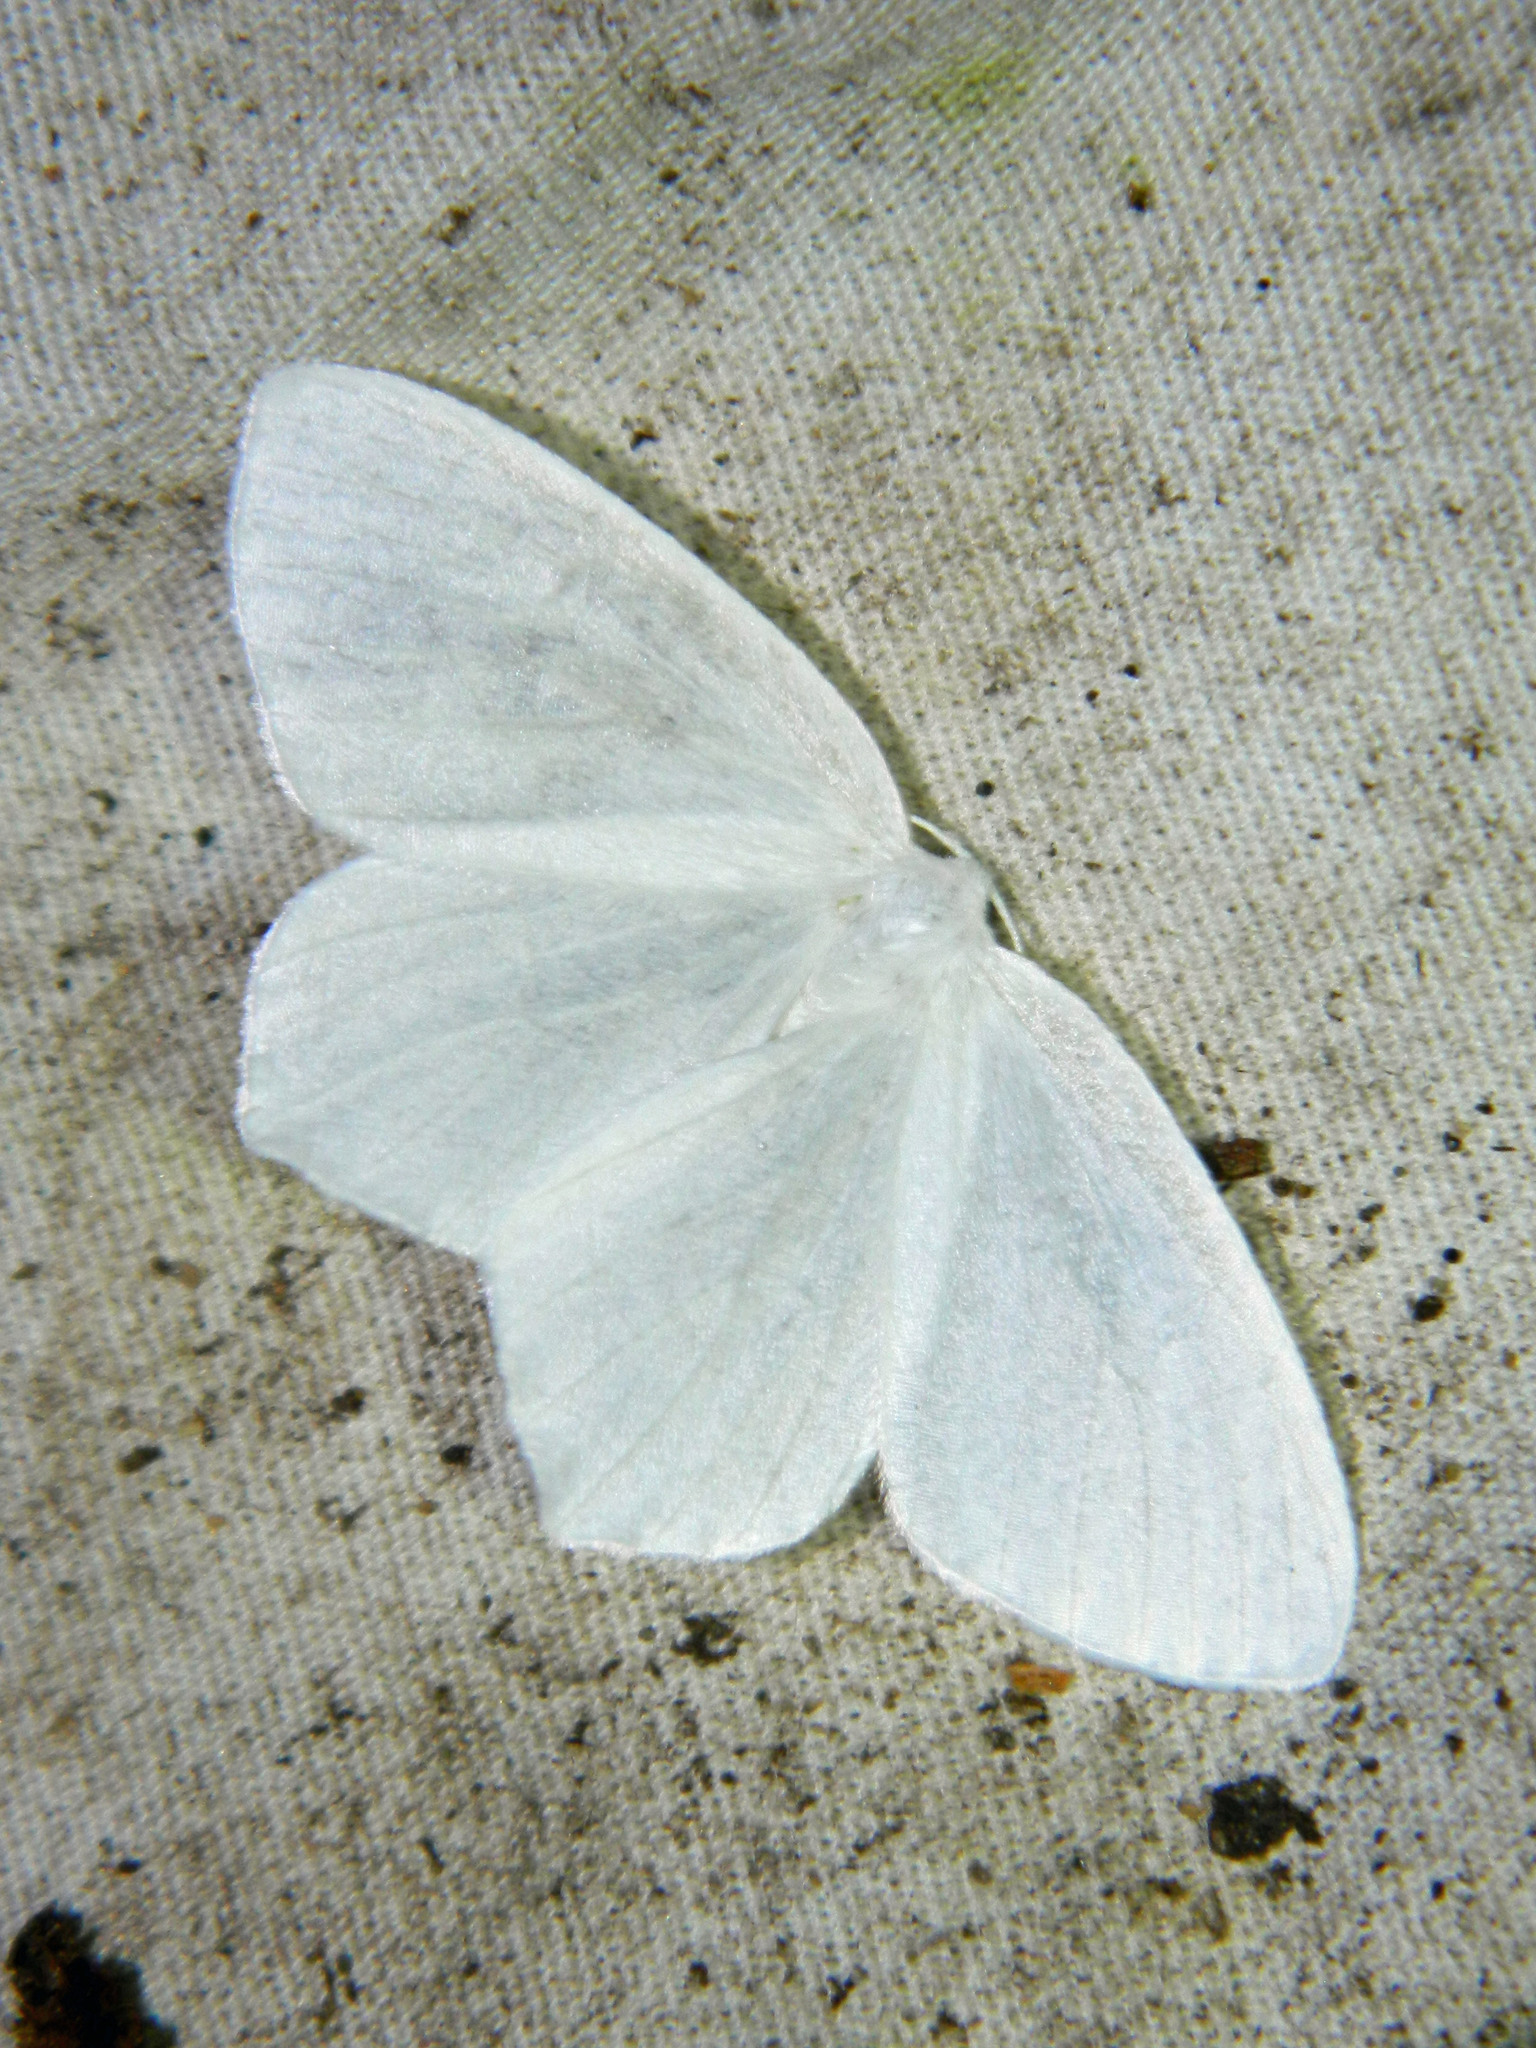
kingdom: Animalia
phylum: Arthropoda
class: Insecta
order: Lepidoptera
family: Geometridae
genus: Eugonobapta
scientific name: Eugonobapta nivosaria
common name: Snowy geometer
